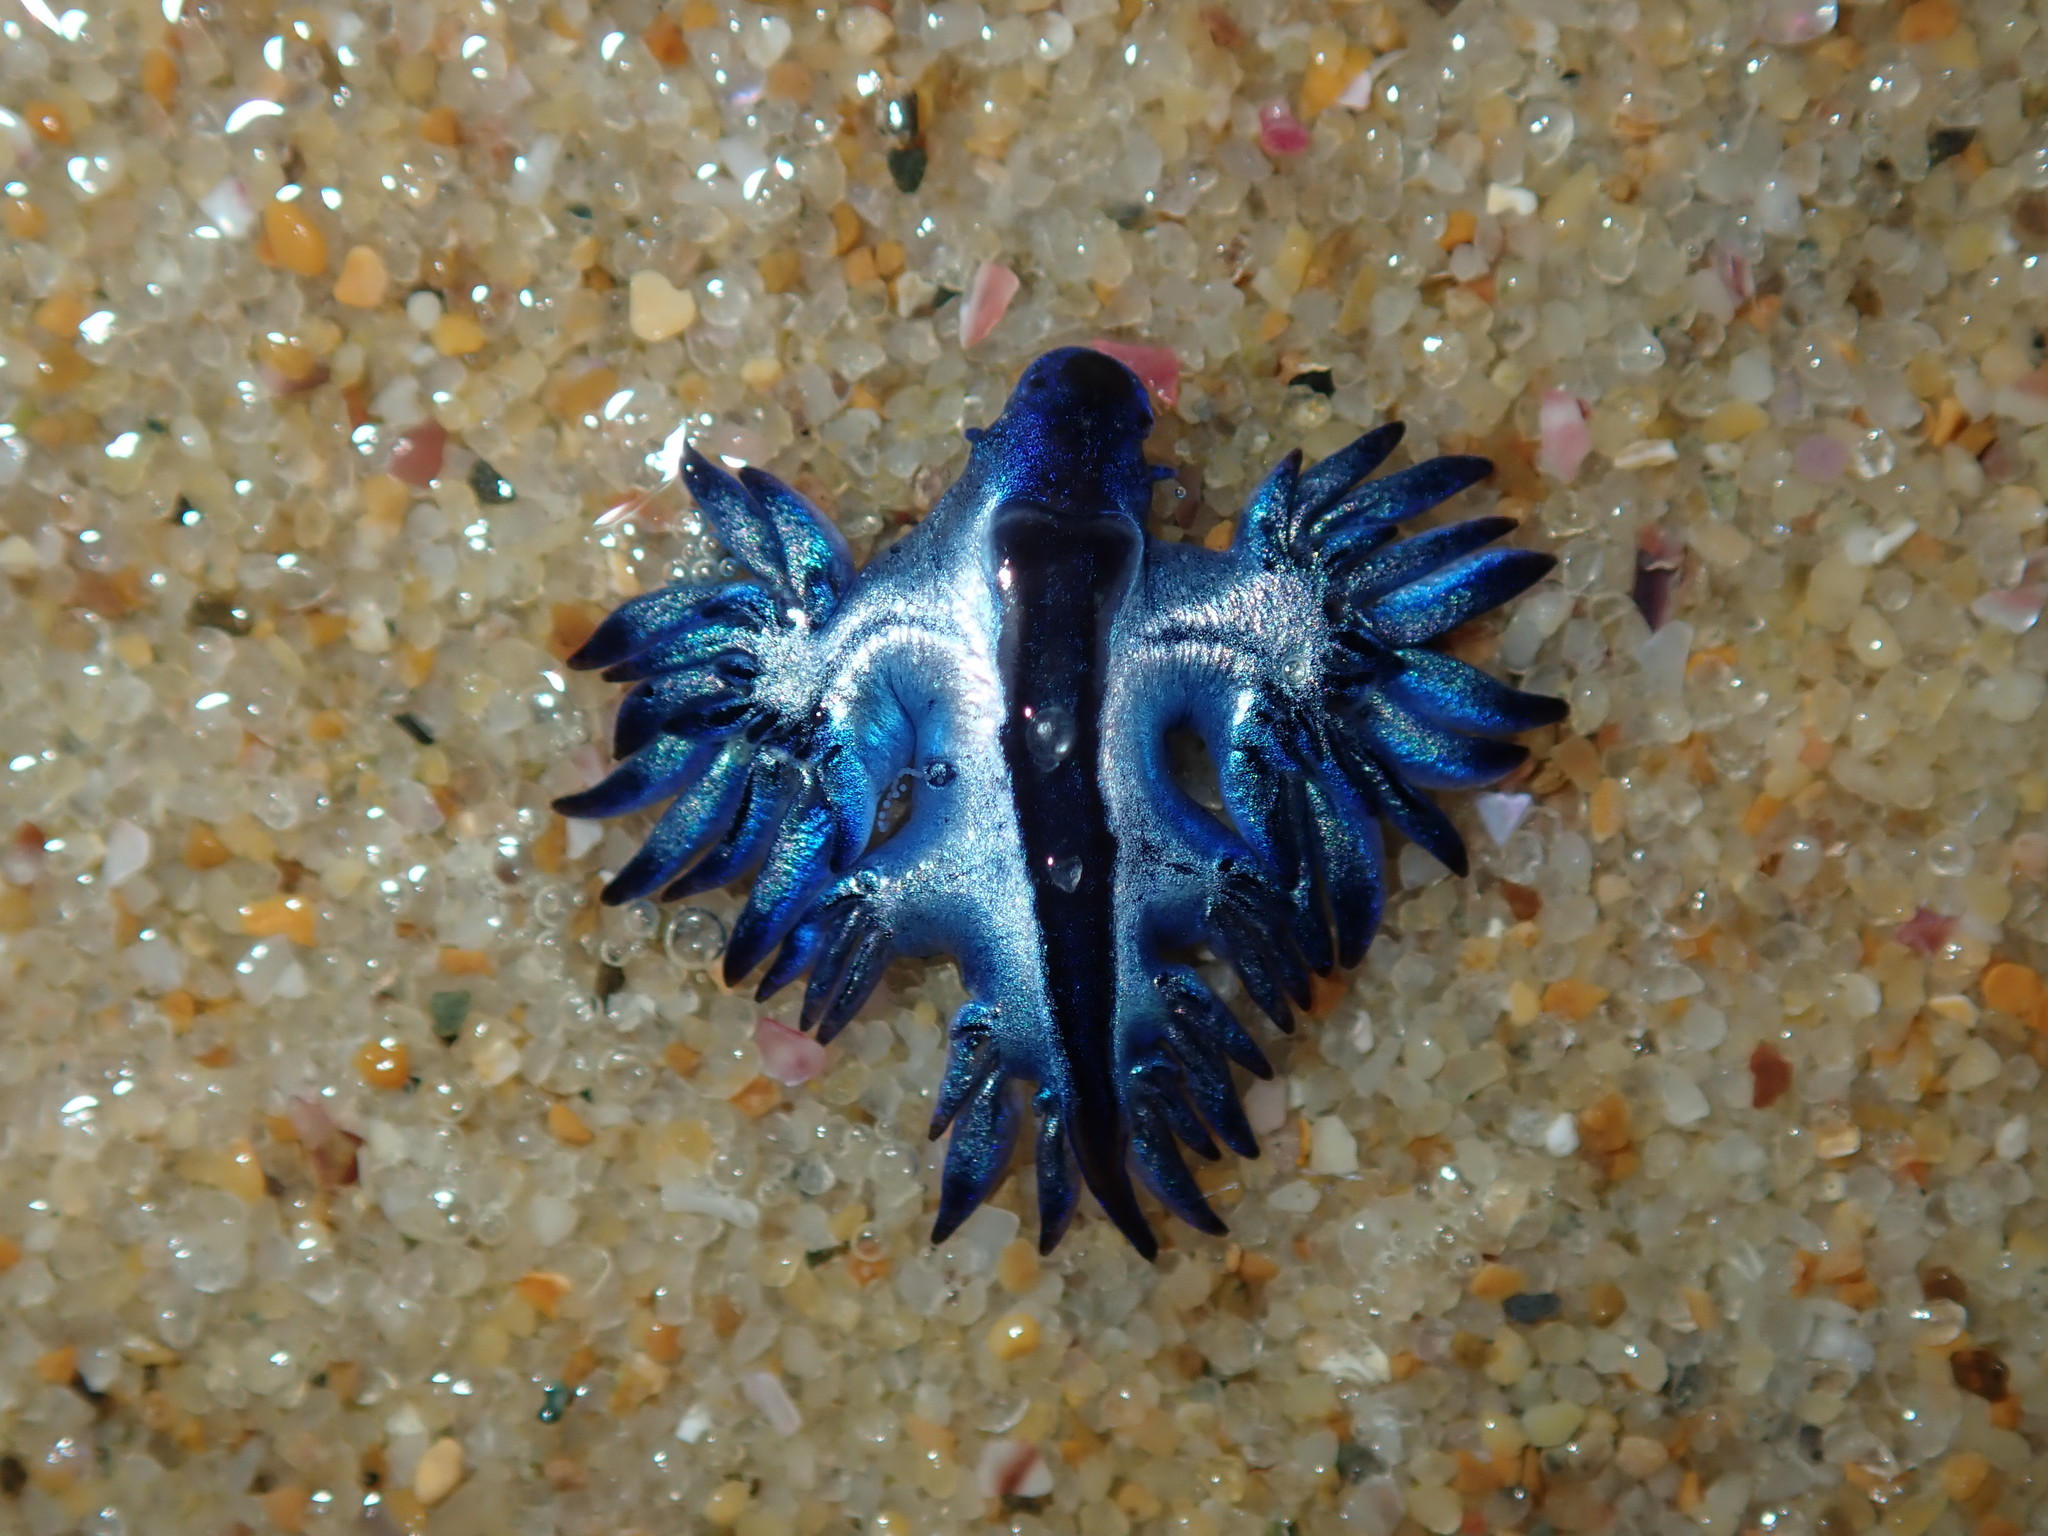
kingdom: Animalia
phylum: Mollusca
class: Gastropoda
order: Nudibranchia
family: Glaucidae
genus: Glaucilla
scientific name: Glaucilla bennettae
